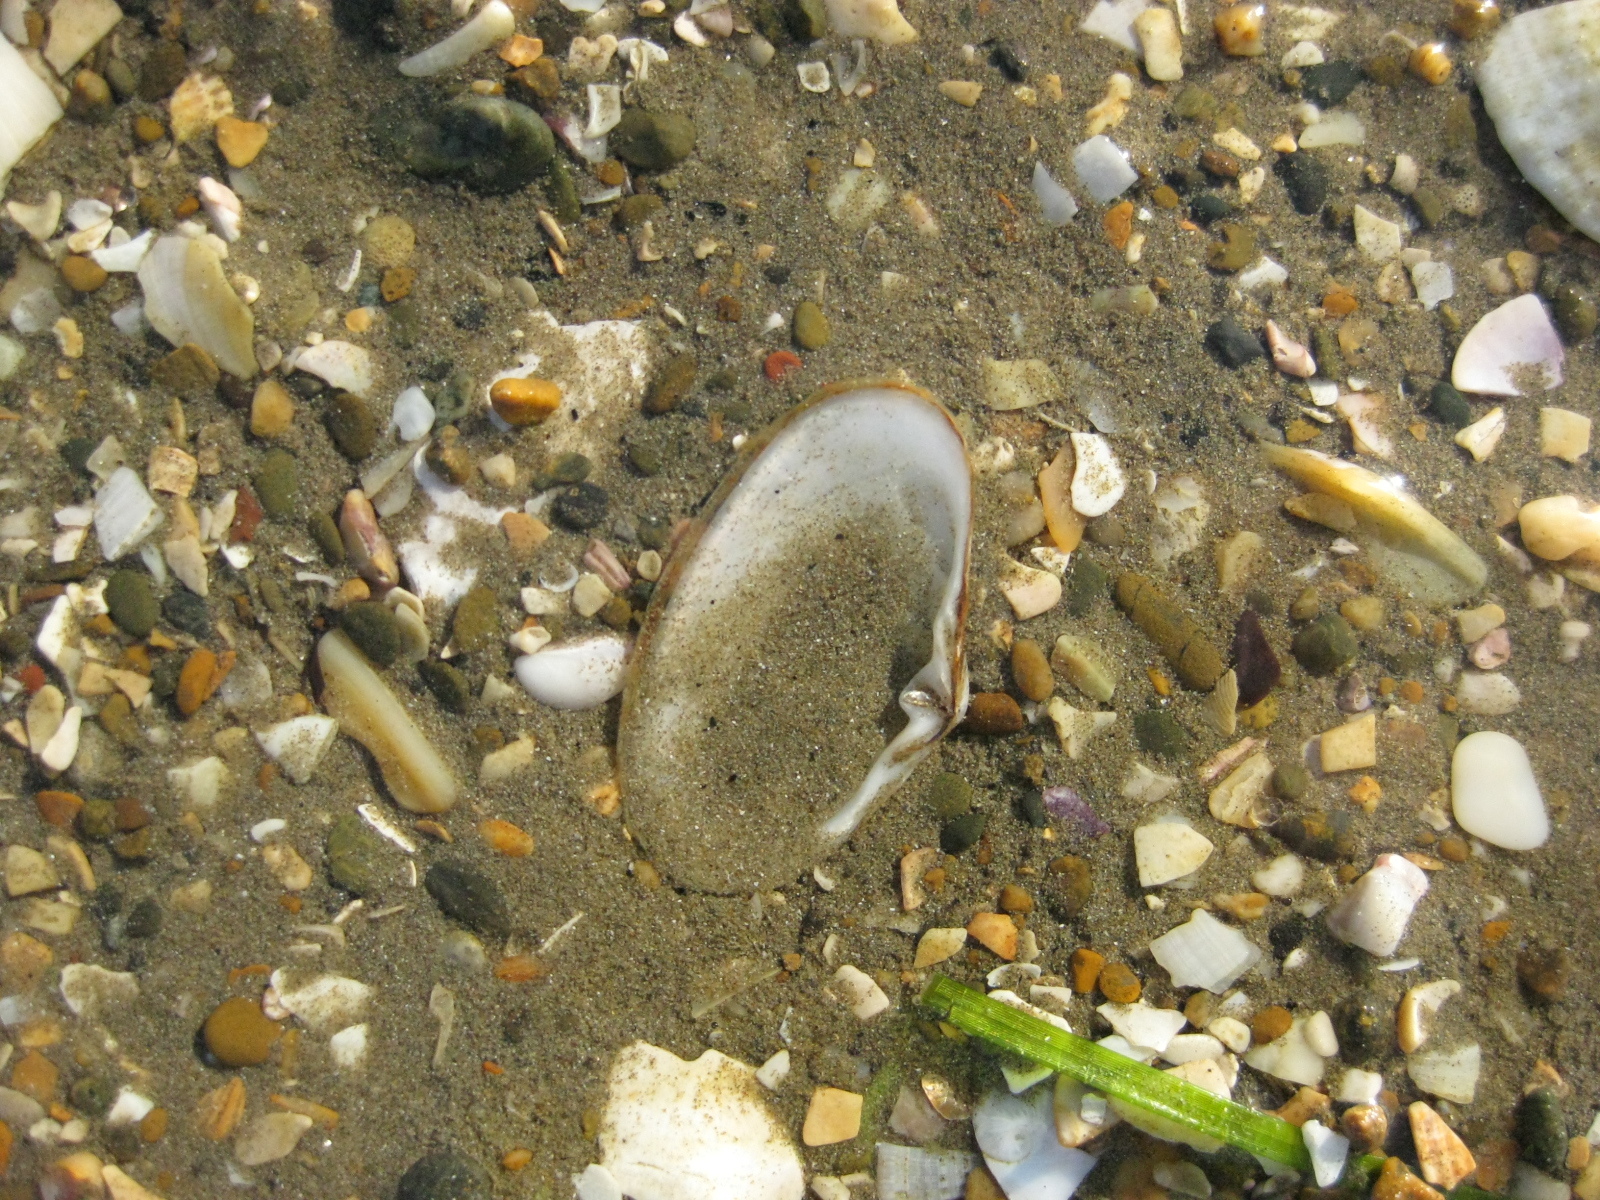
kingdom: Animalia
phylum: Mollusca
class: Bivalvia
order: Venerida
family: Mesodesmatidae
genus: Paphies
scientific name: Paphies australis
